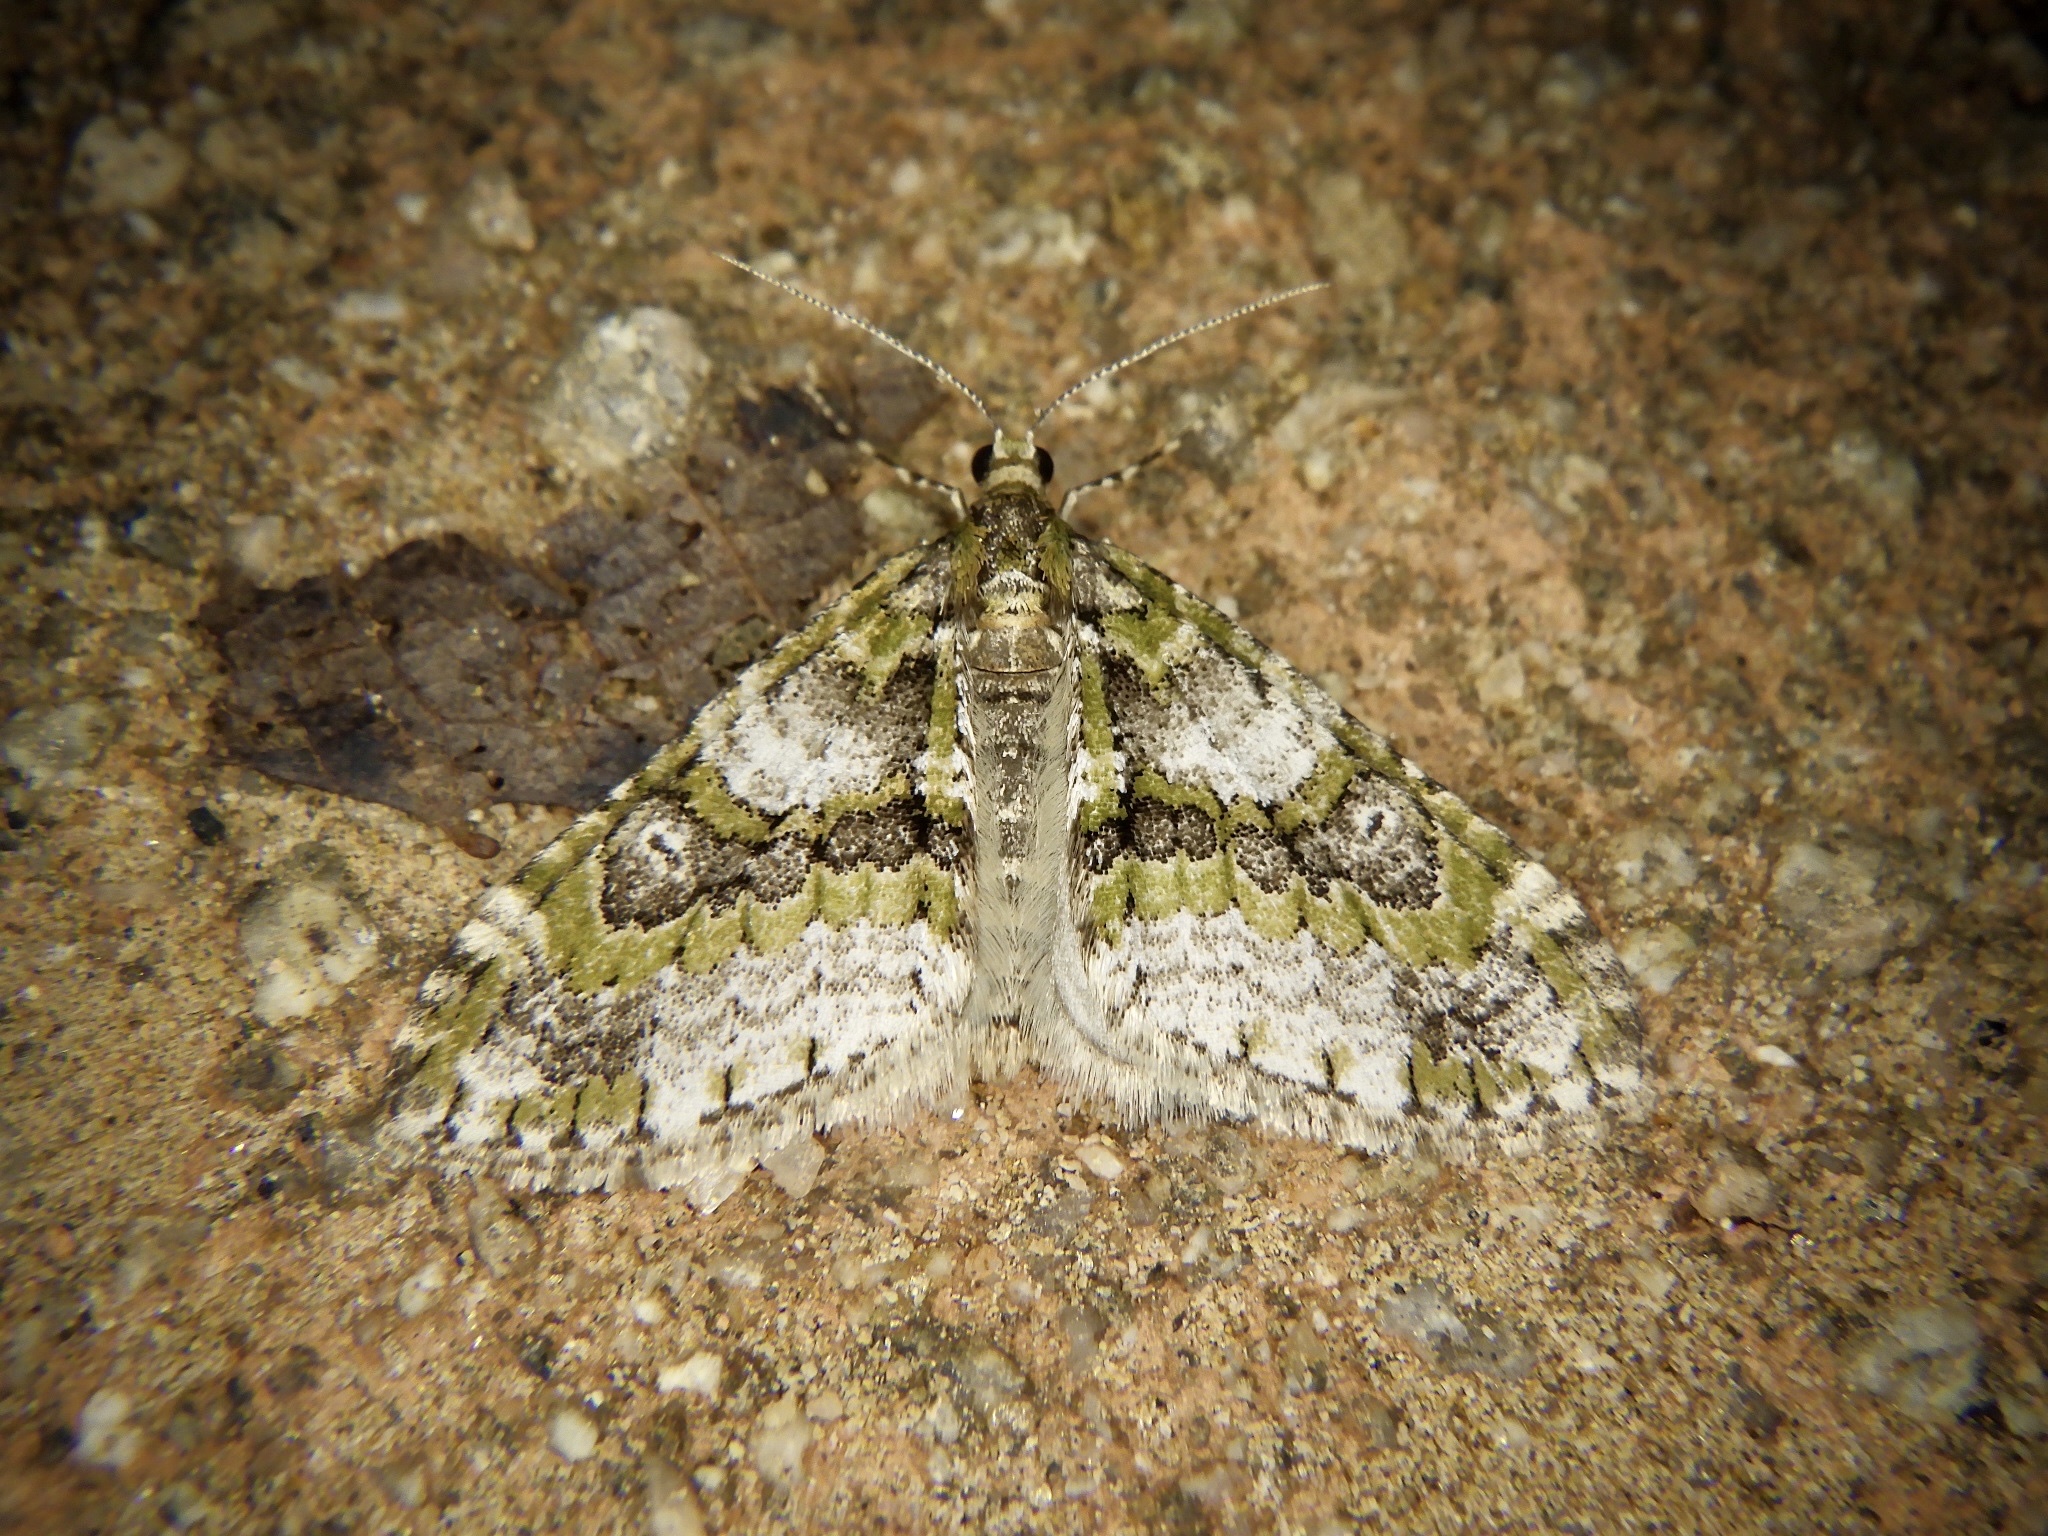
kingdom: Animalia
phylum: Arthropoda
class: Insecta
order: Lepidoptera
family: Geometridae
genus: Esakiopteryx
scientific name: Esakiopteryx volitans
